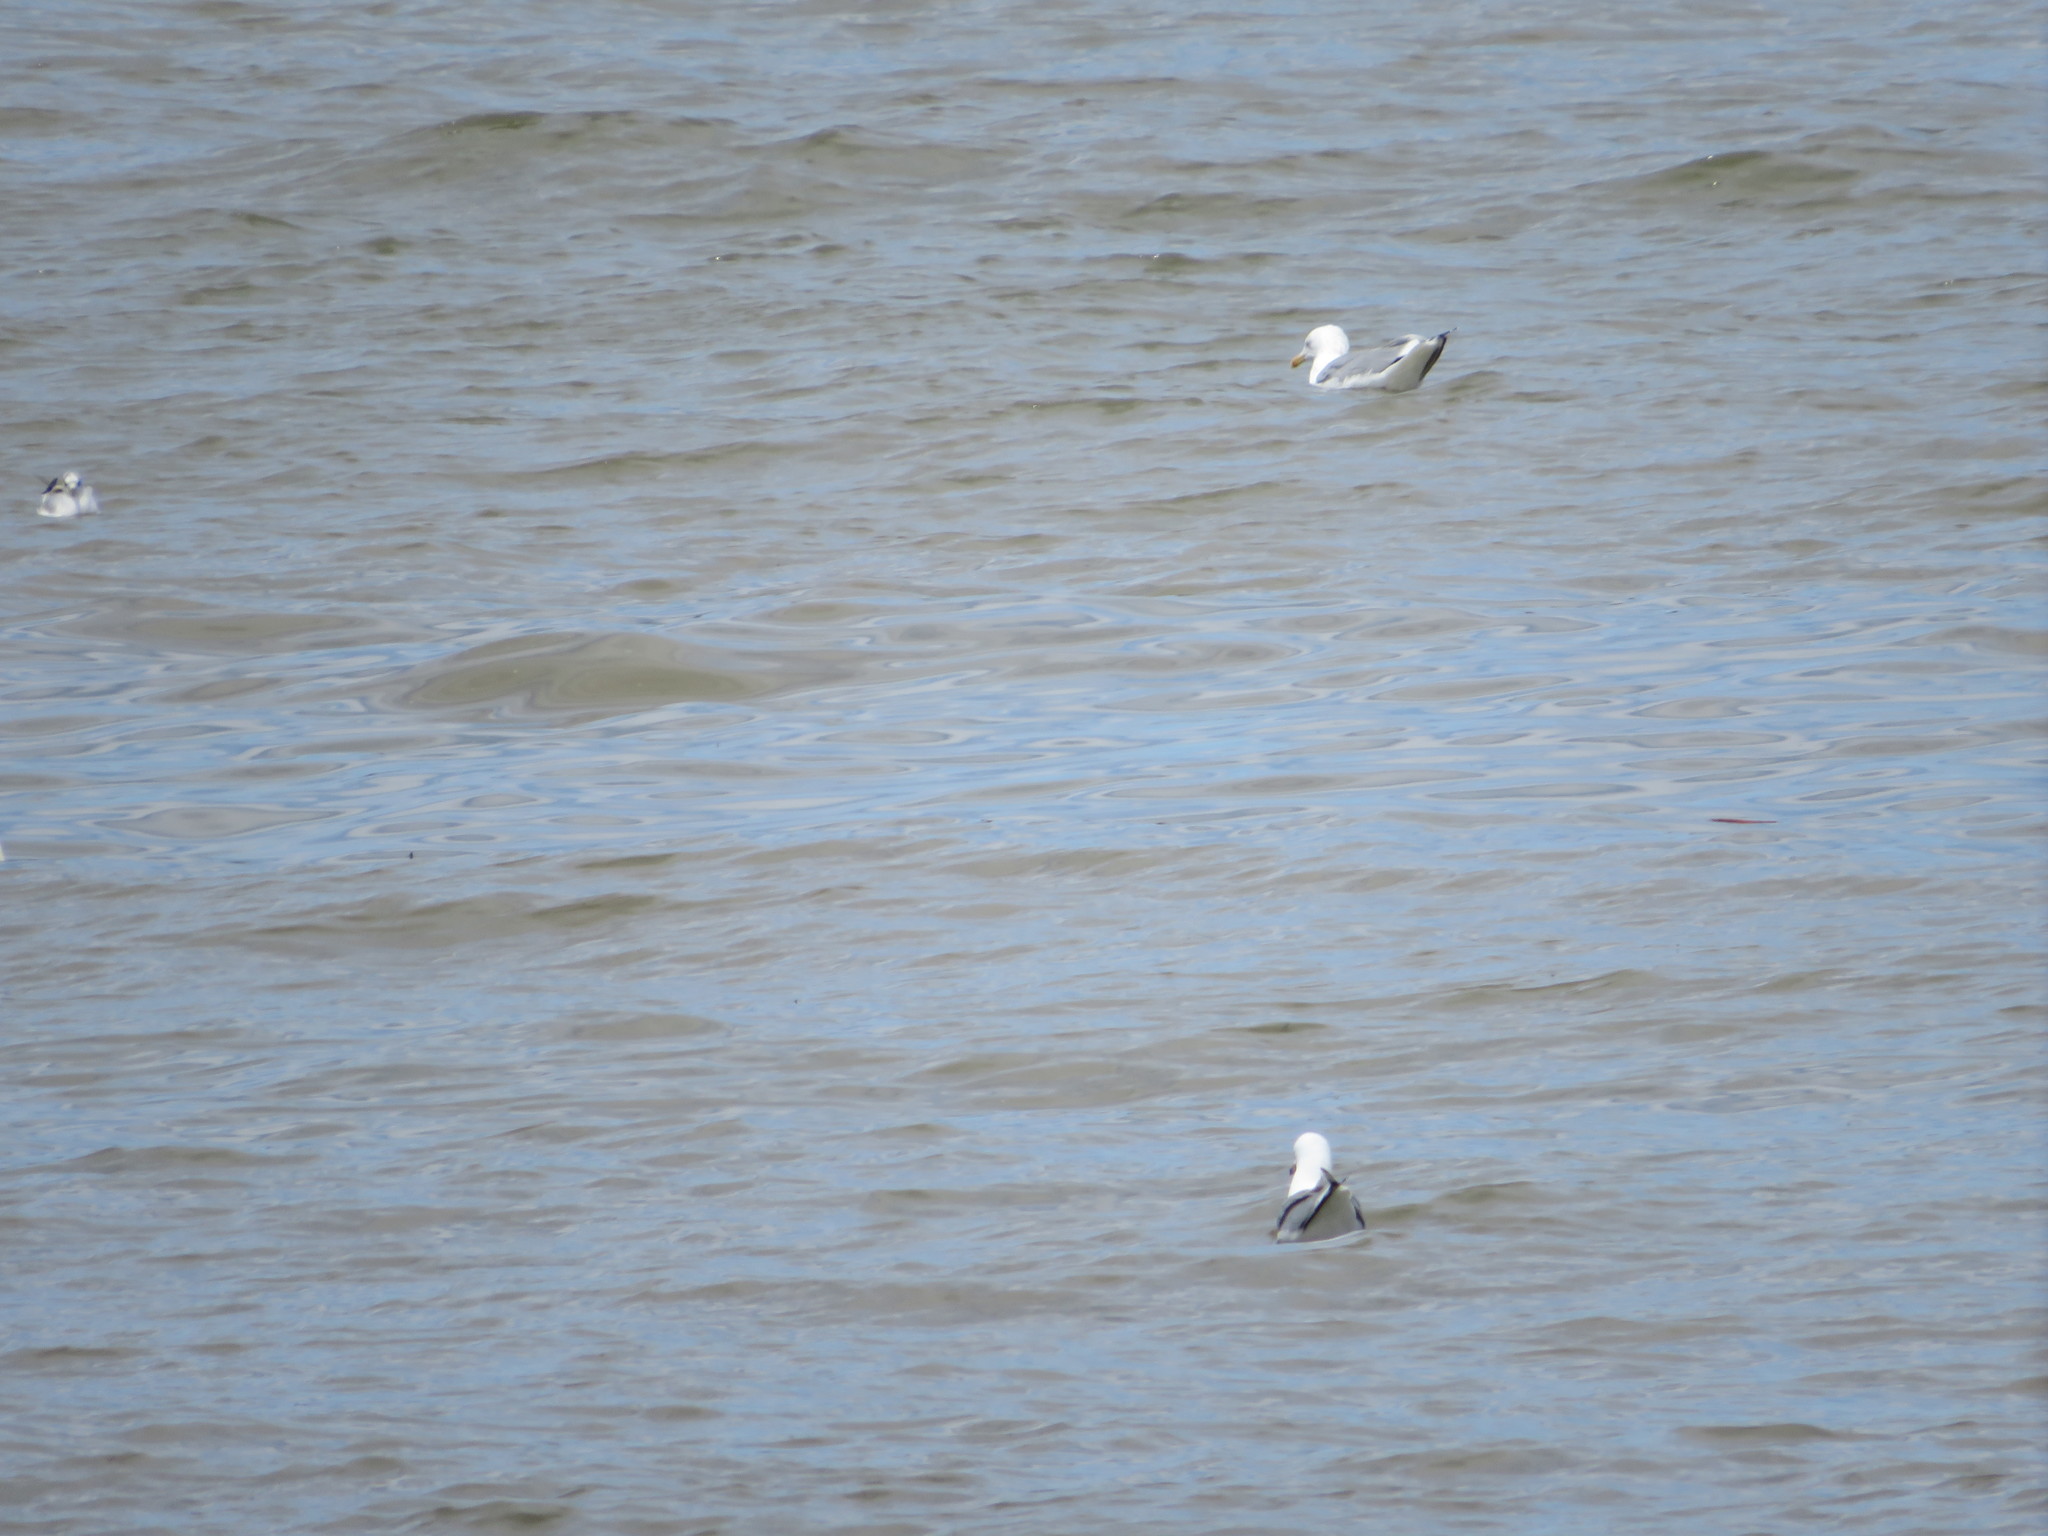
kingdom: Animalia
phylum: Chordata
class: Aves
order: Charadriiformes
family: Laridae
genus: Larus
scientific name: Larus argentatus
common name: Herring gull
